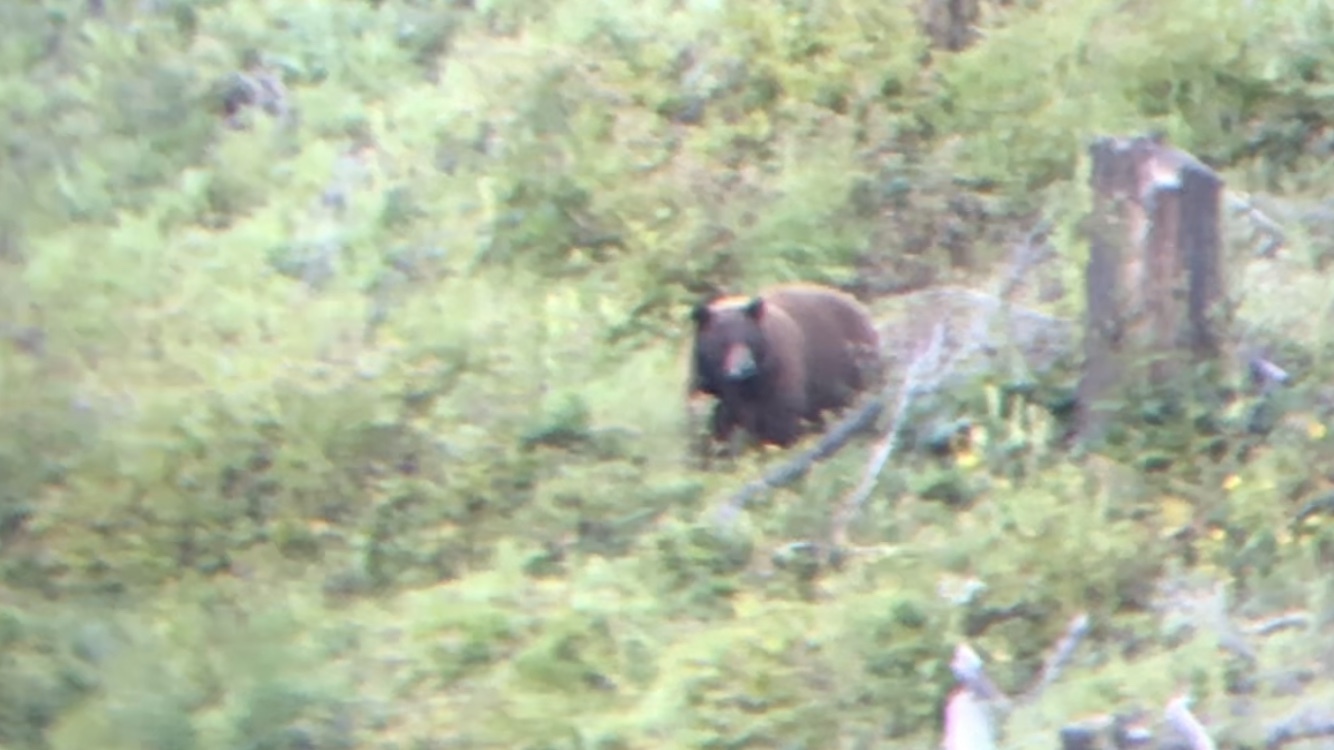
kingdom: Animalia
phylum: Chordata
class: Mammalia
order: Carnivora
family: Ursidae
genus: Ursus
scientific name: Ursus americanus
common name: American black bear
